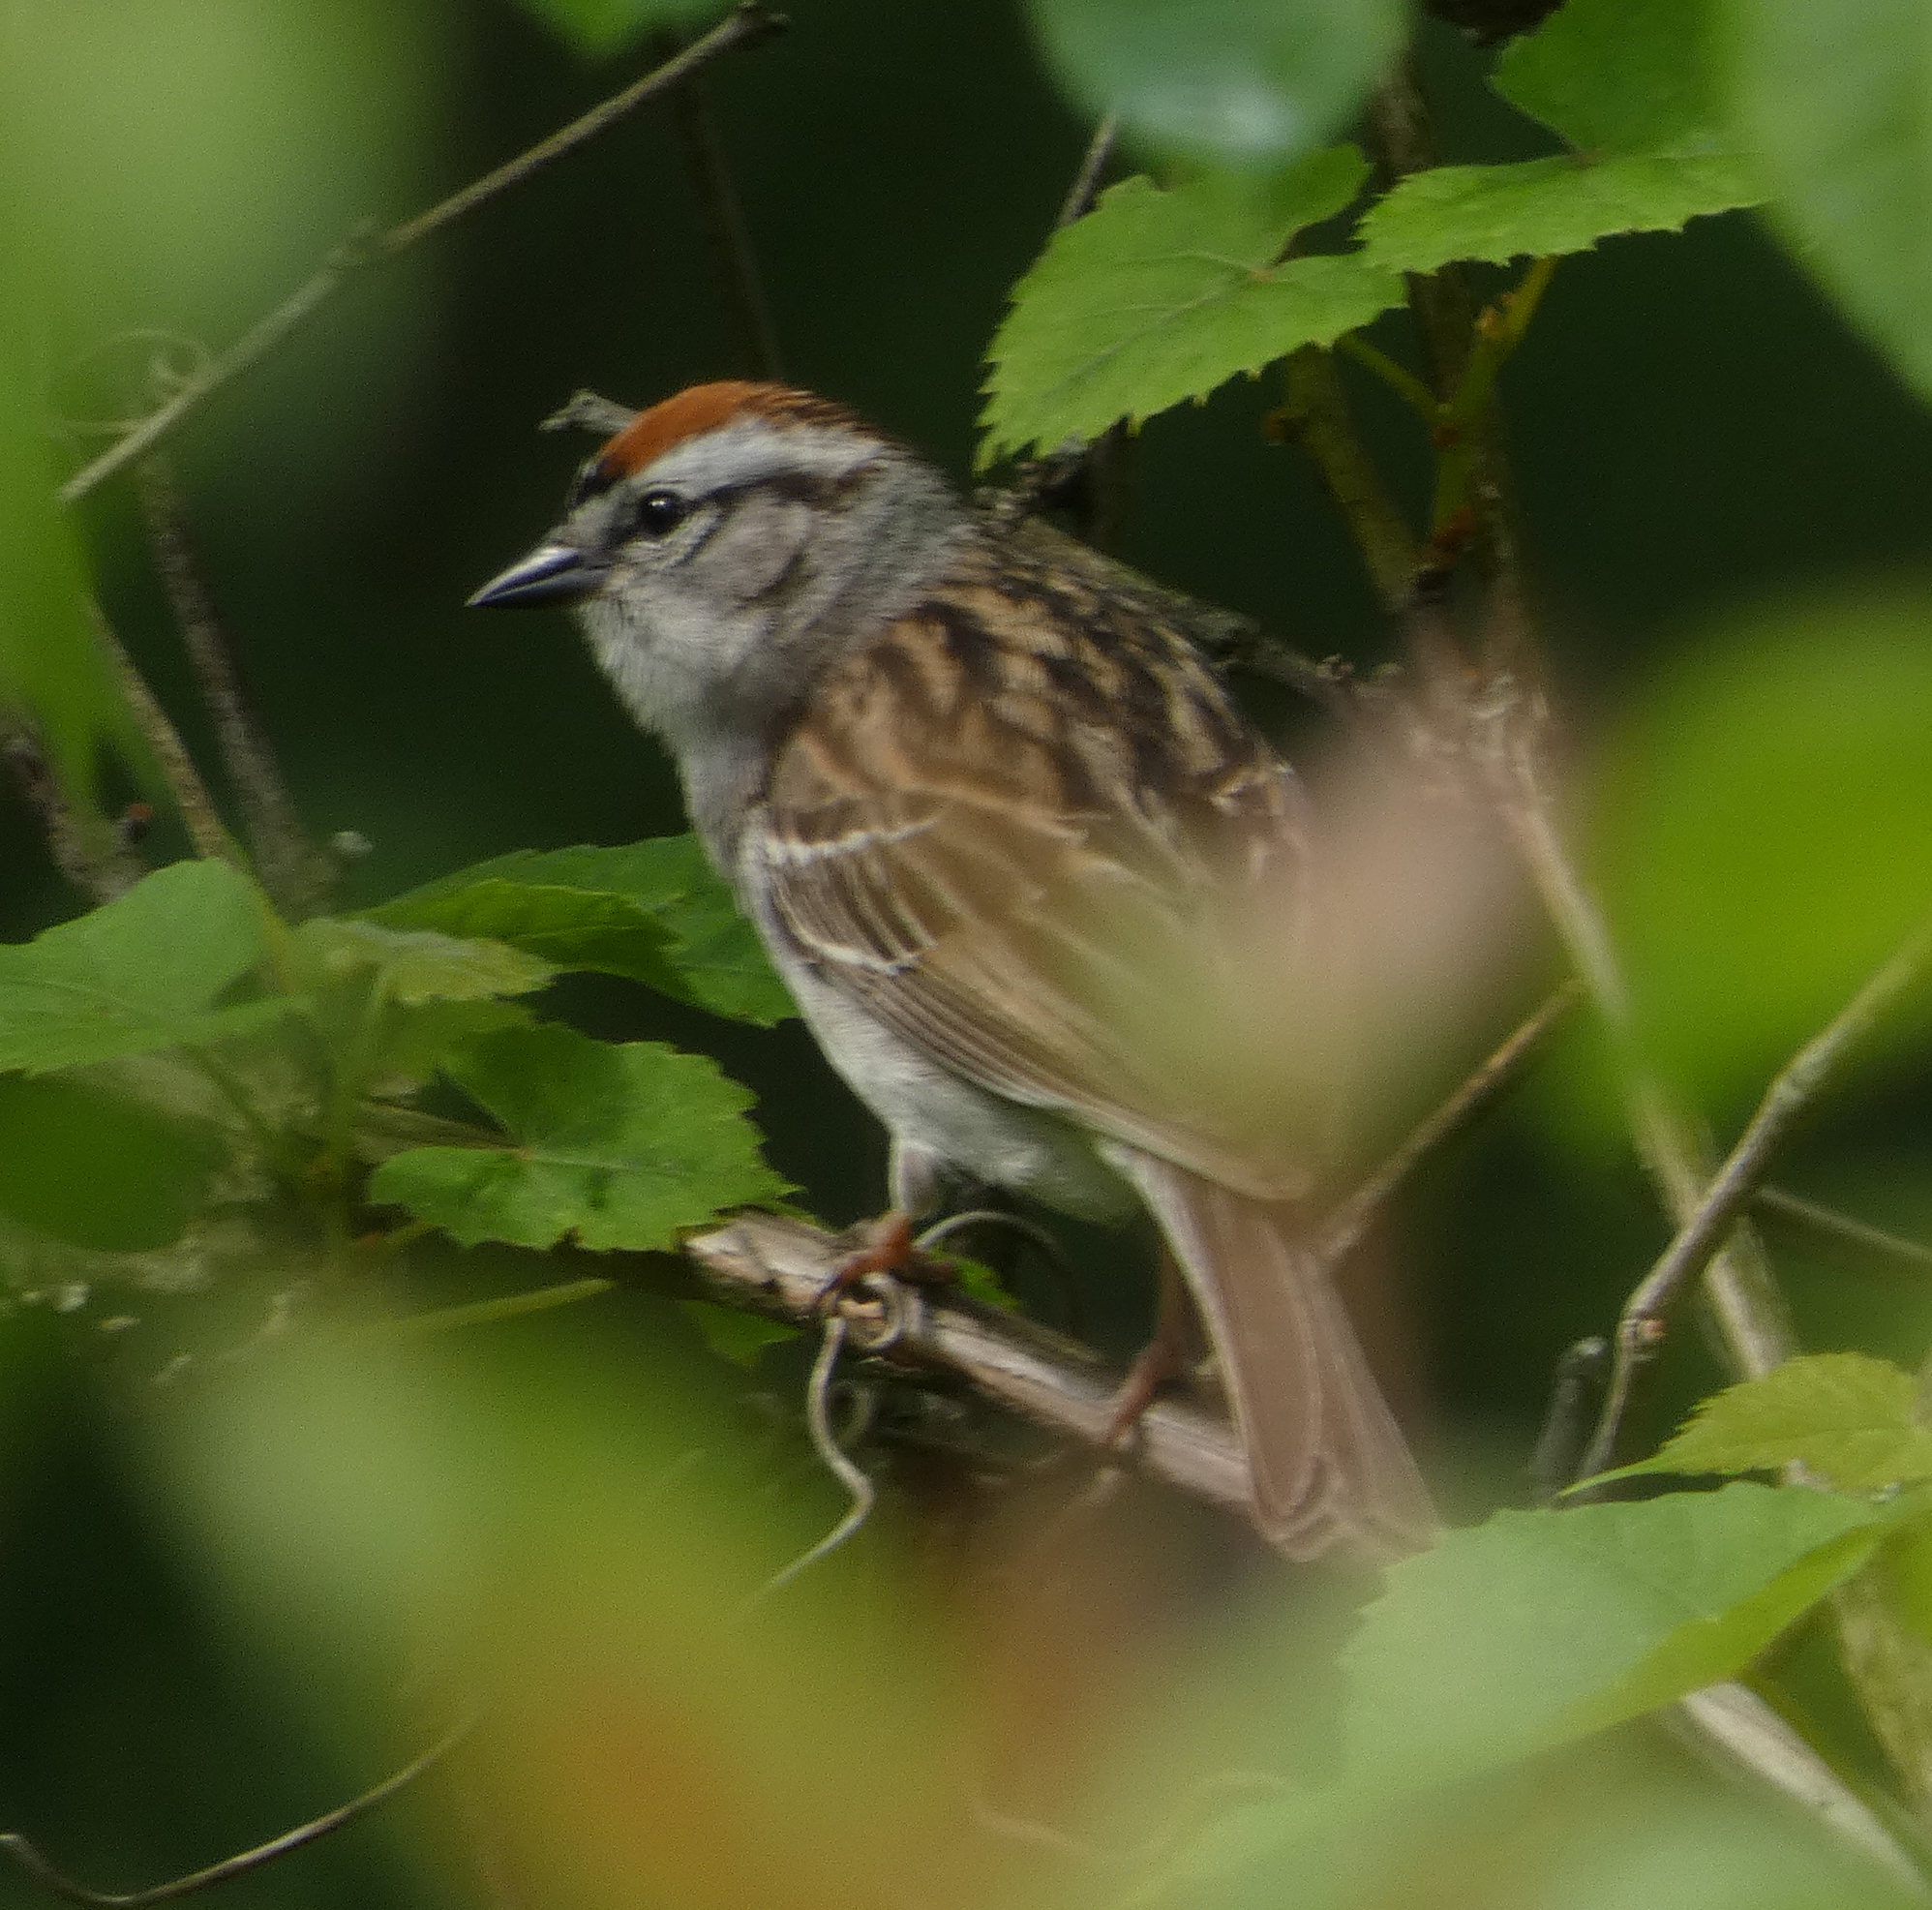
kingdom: Animalia
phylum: Chordata
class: Aves
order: Passeriformes
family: Passerellidae
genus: Spizella
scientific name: Spizella passerina
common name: Chipping sparrow
